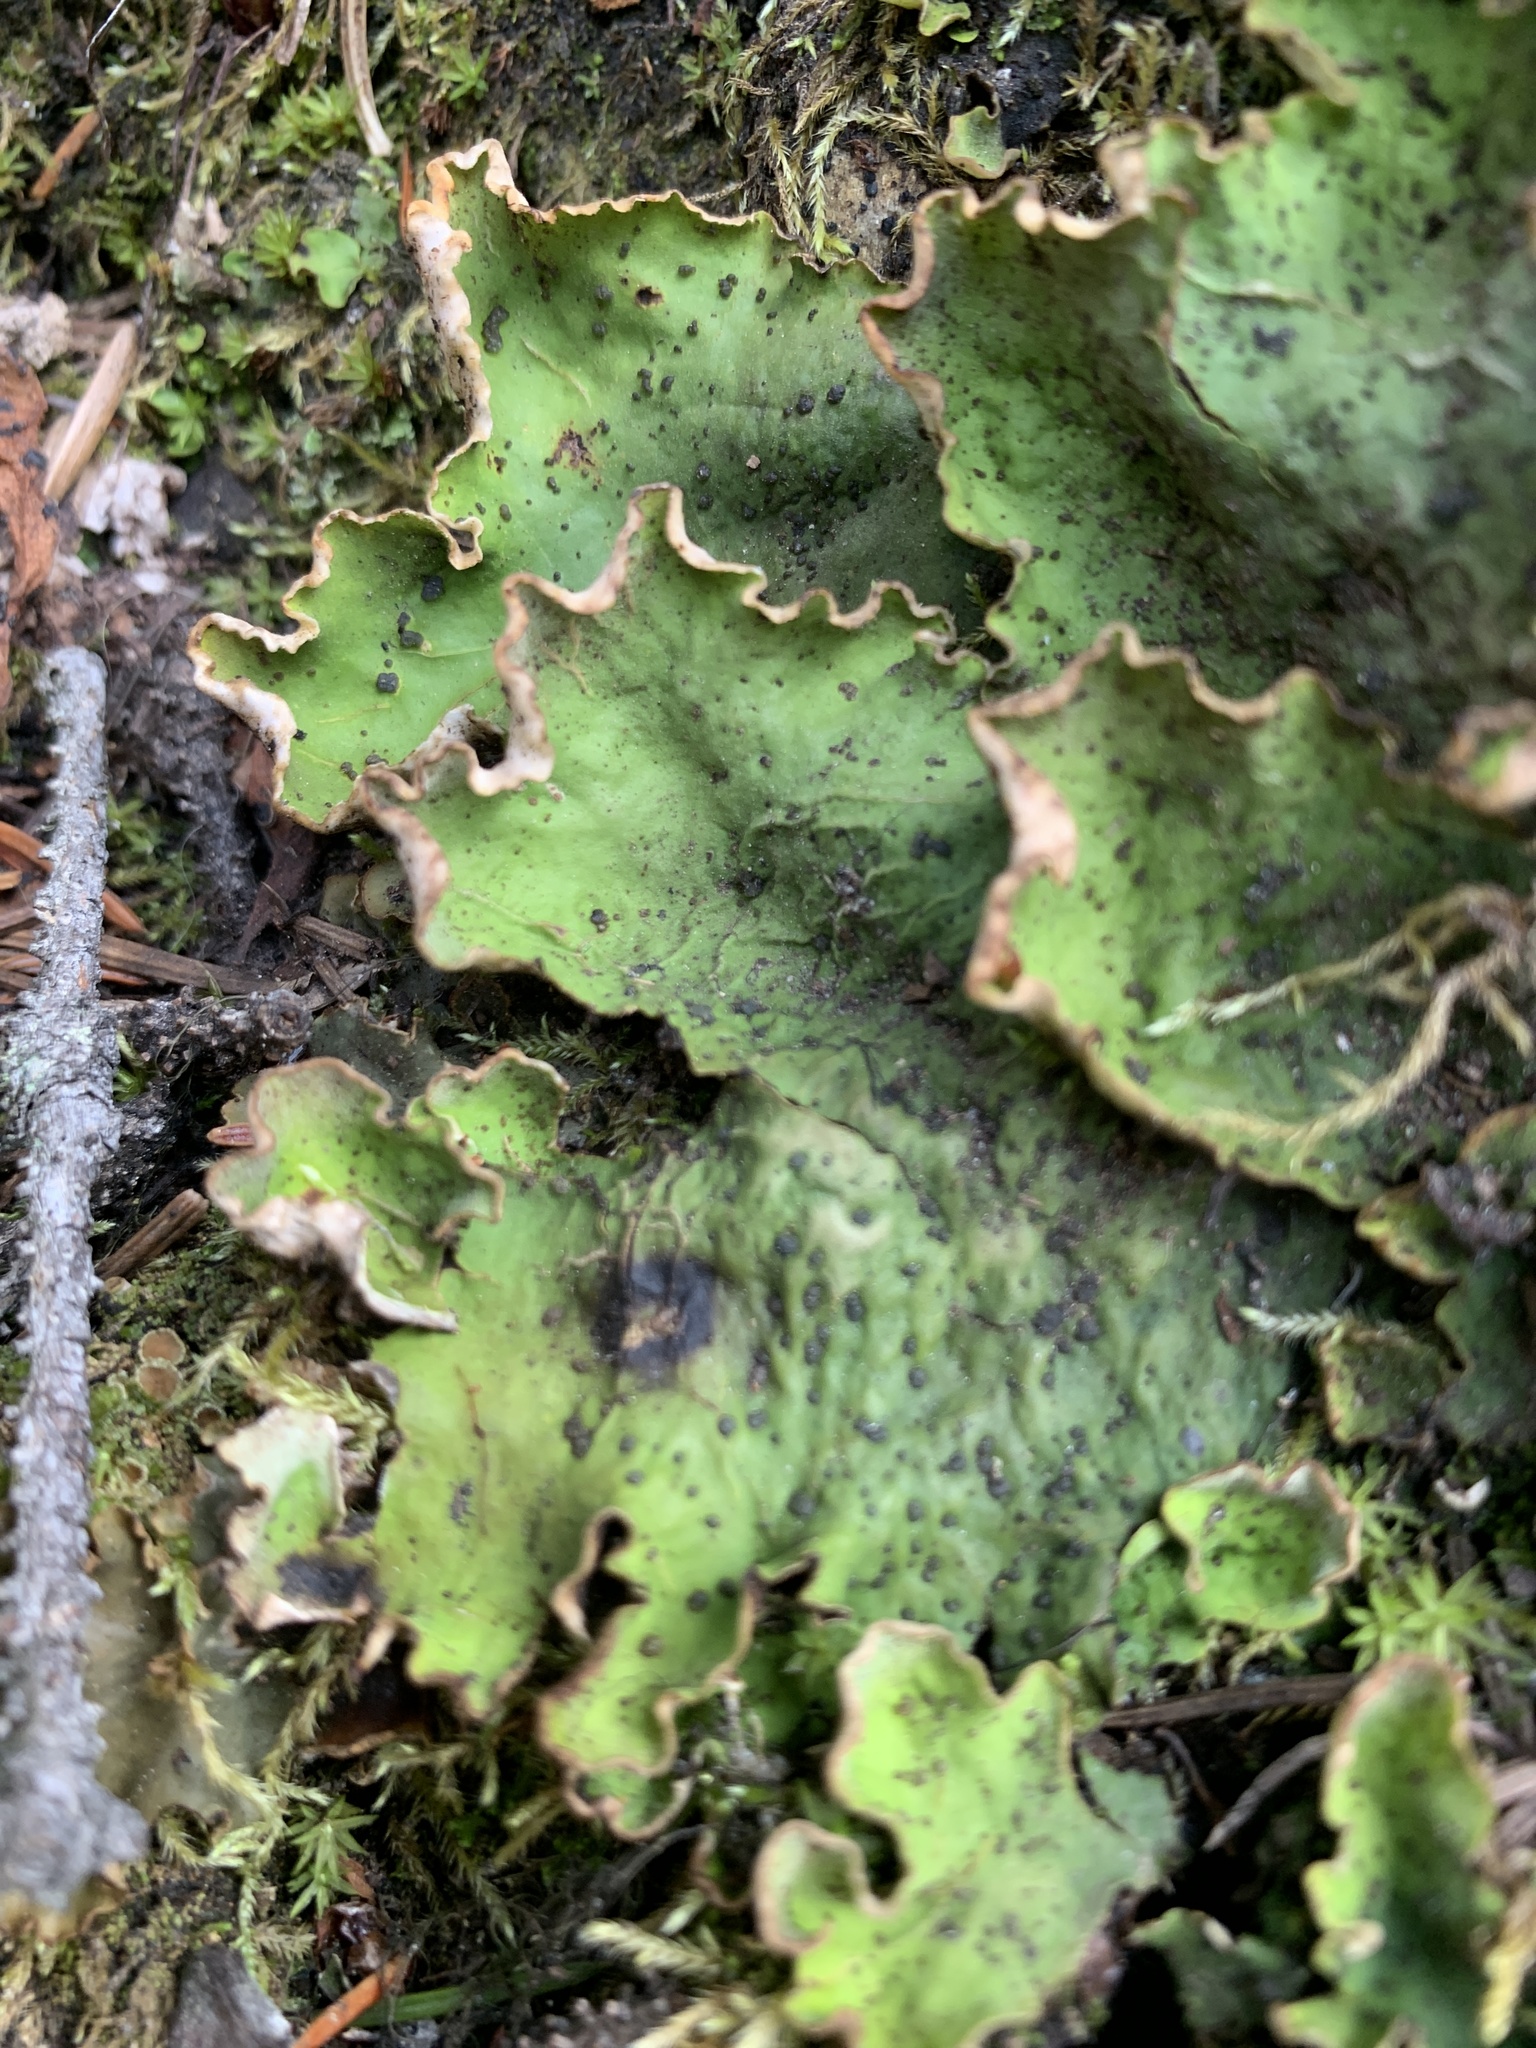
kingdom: Fungi
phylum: Ascomycota
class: Lecanoromycetes
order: Peltigerales
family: Peltigeraceae
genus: Peltigera
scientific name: Peltigera aphthosa
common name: Common freckle pelt lichen
